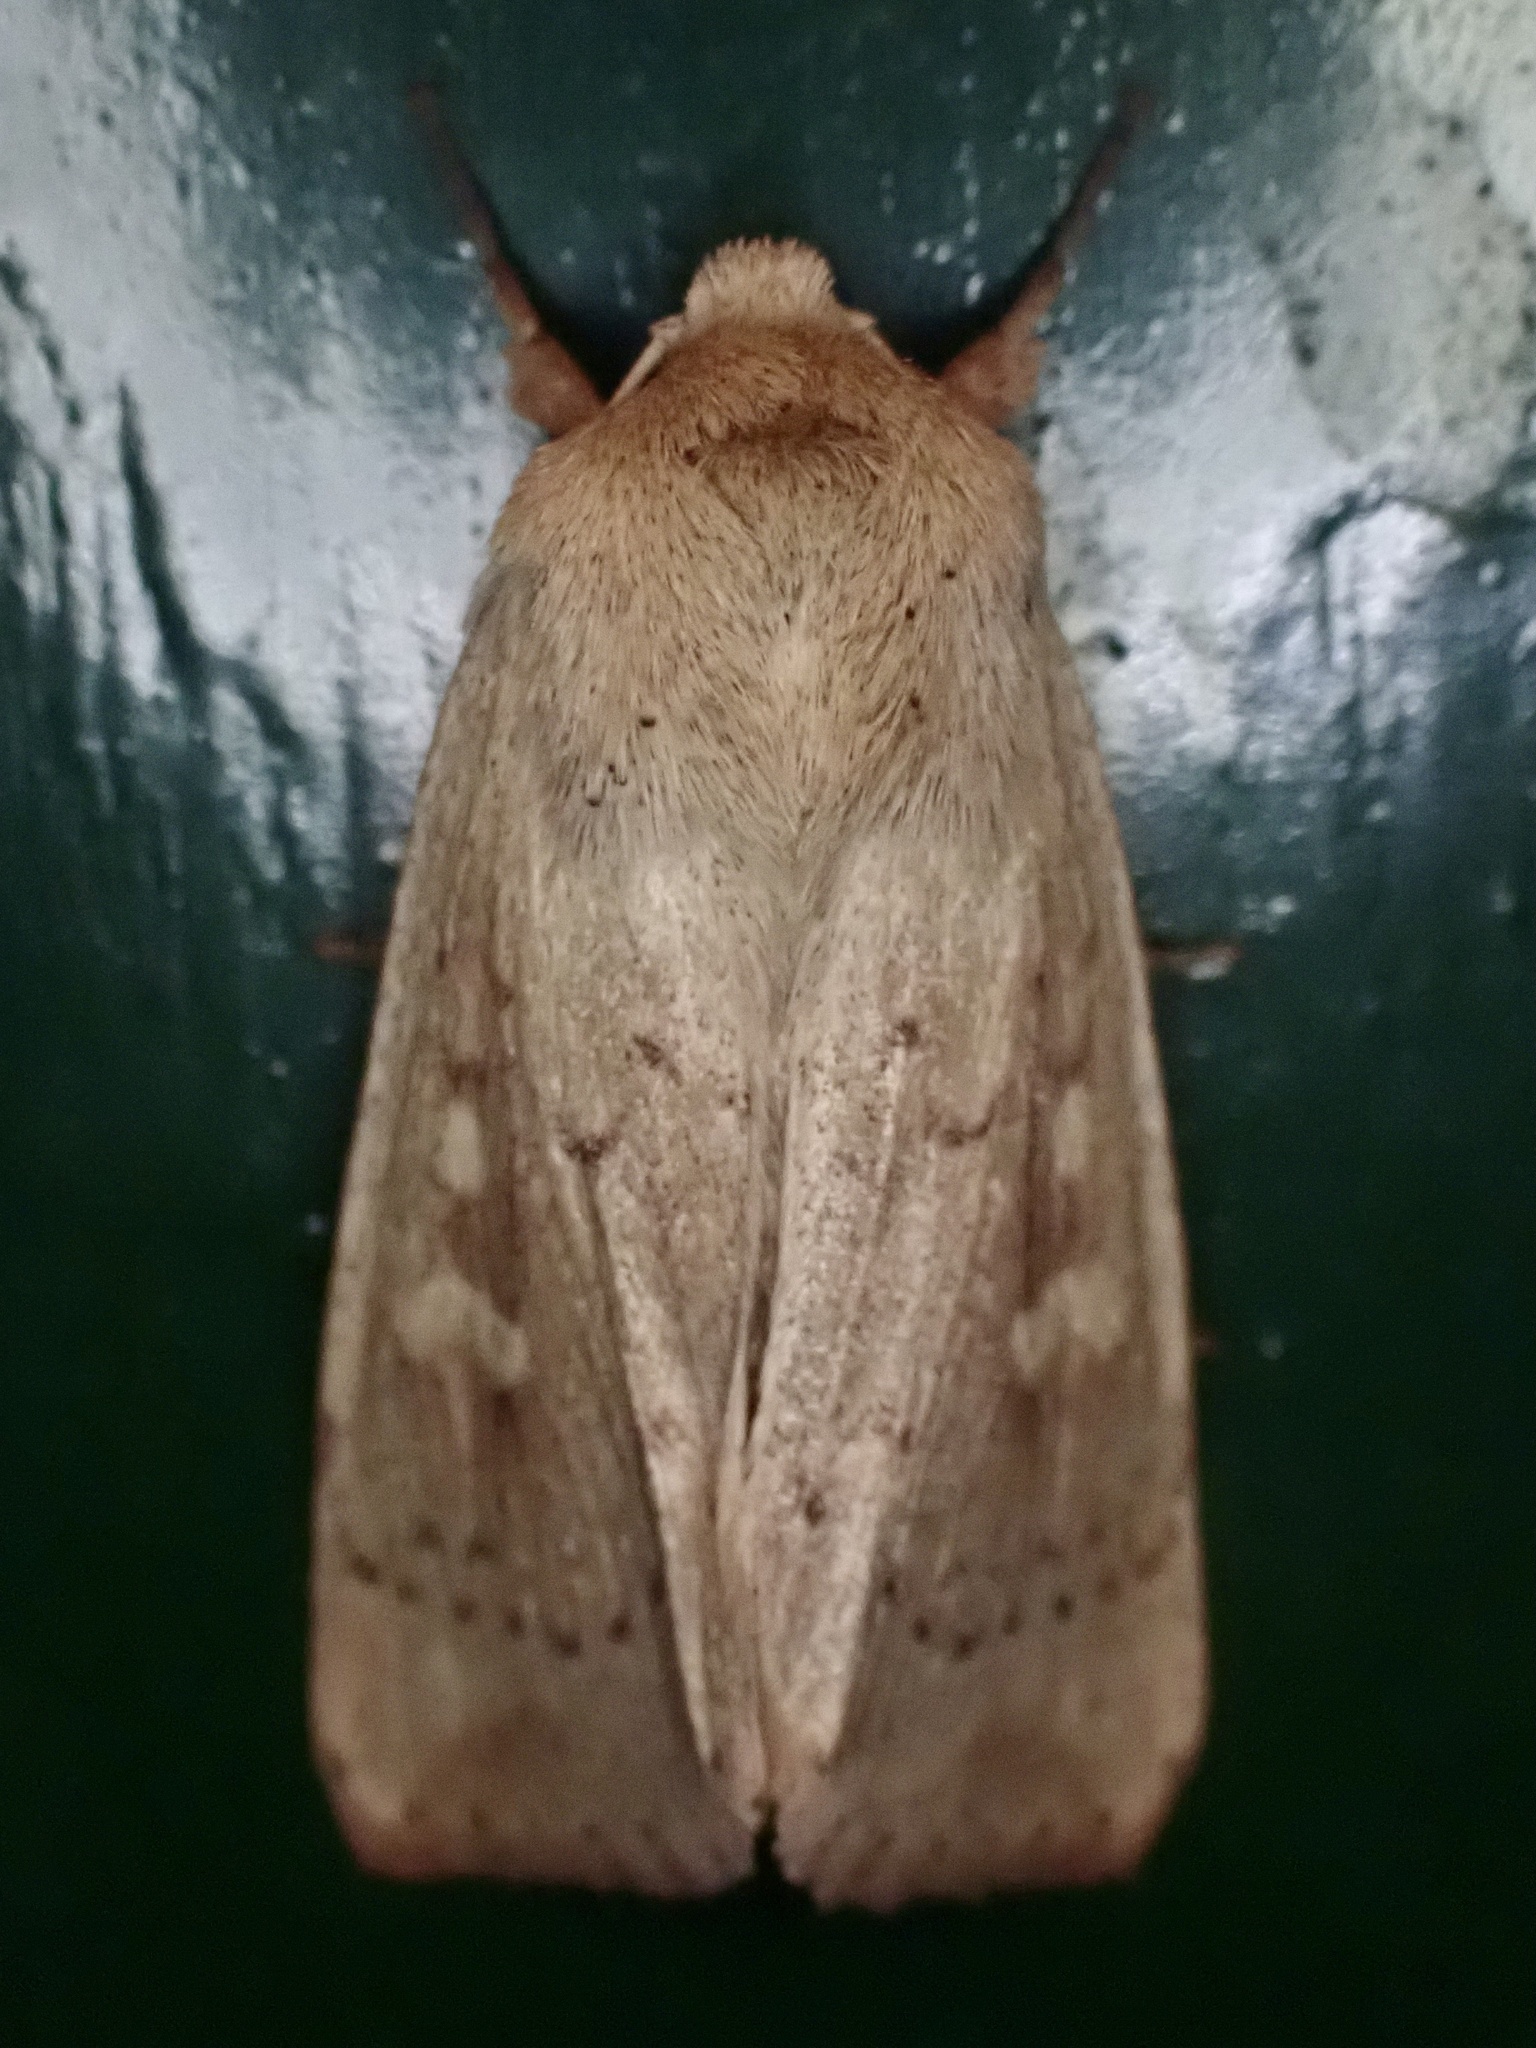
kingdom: Animalia
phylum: Arthropoda
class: Insecta
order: Lepidoptera
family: Noctuidae
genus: Leucania
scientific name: Leucania pseudargyria
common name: False wainscot
